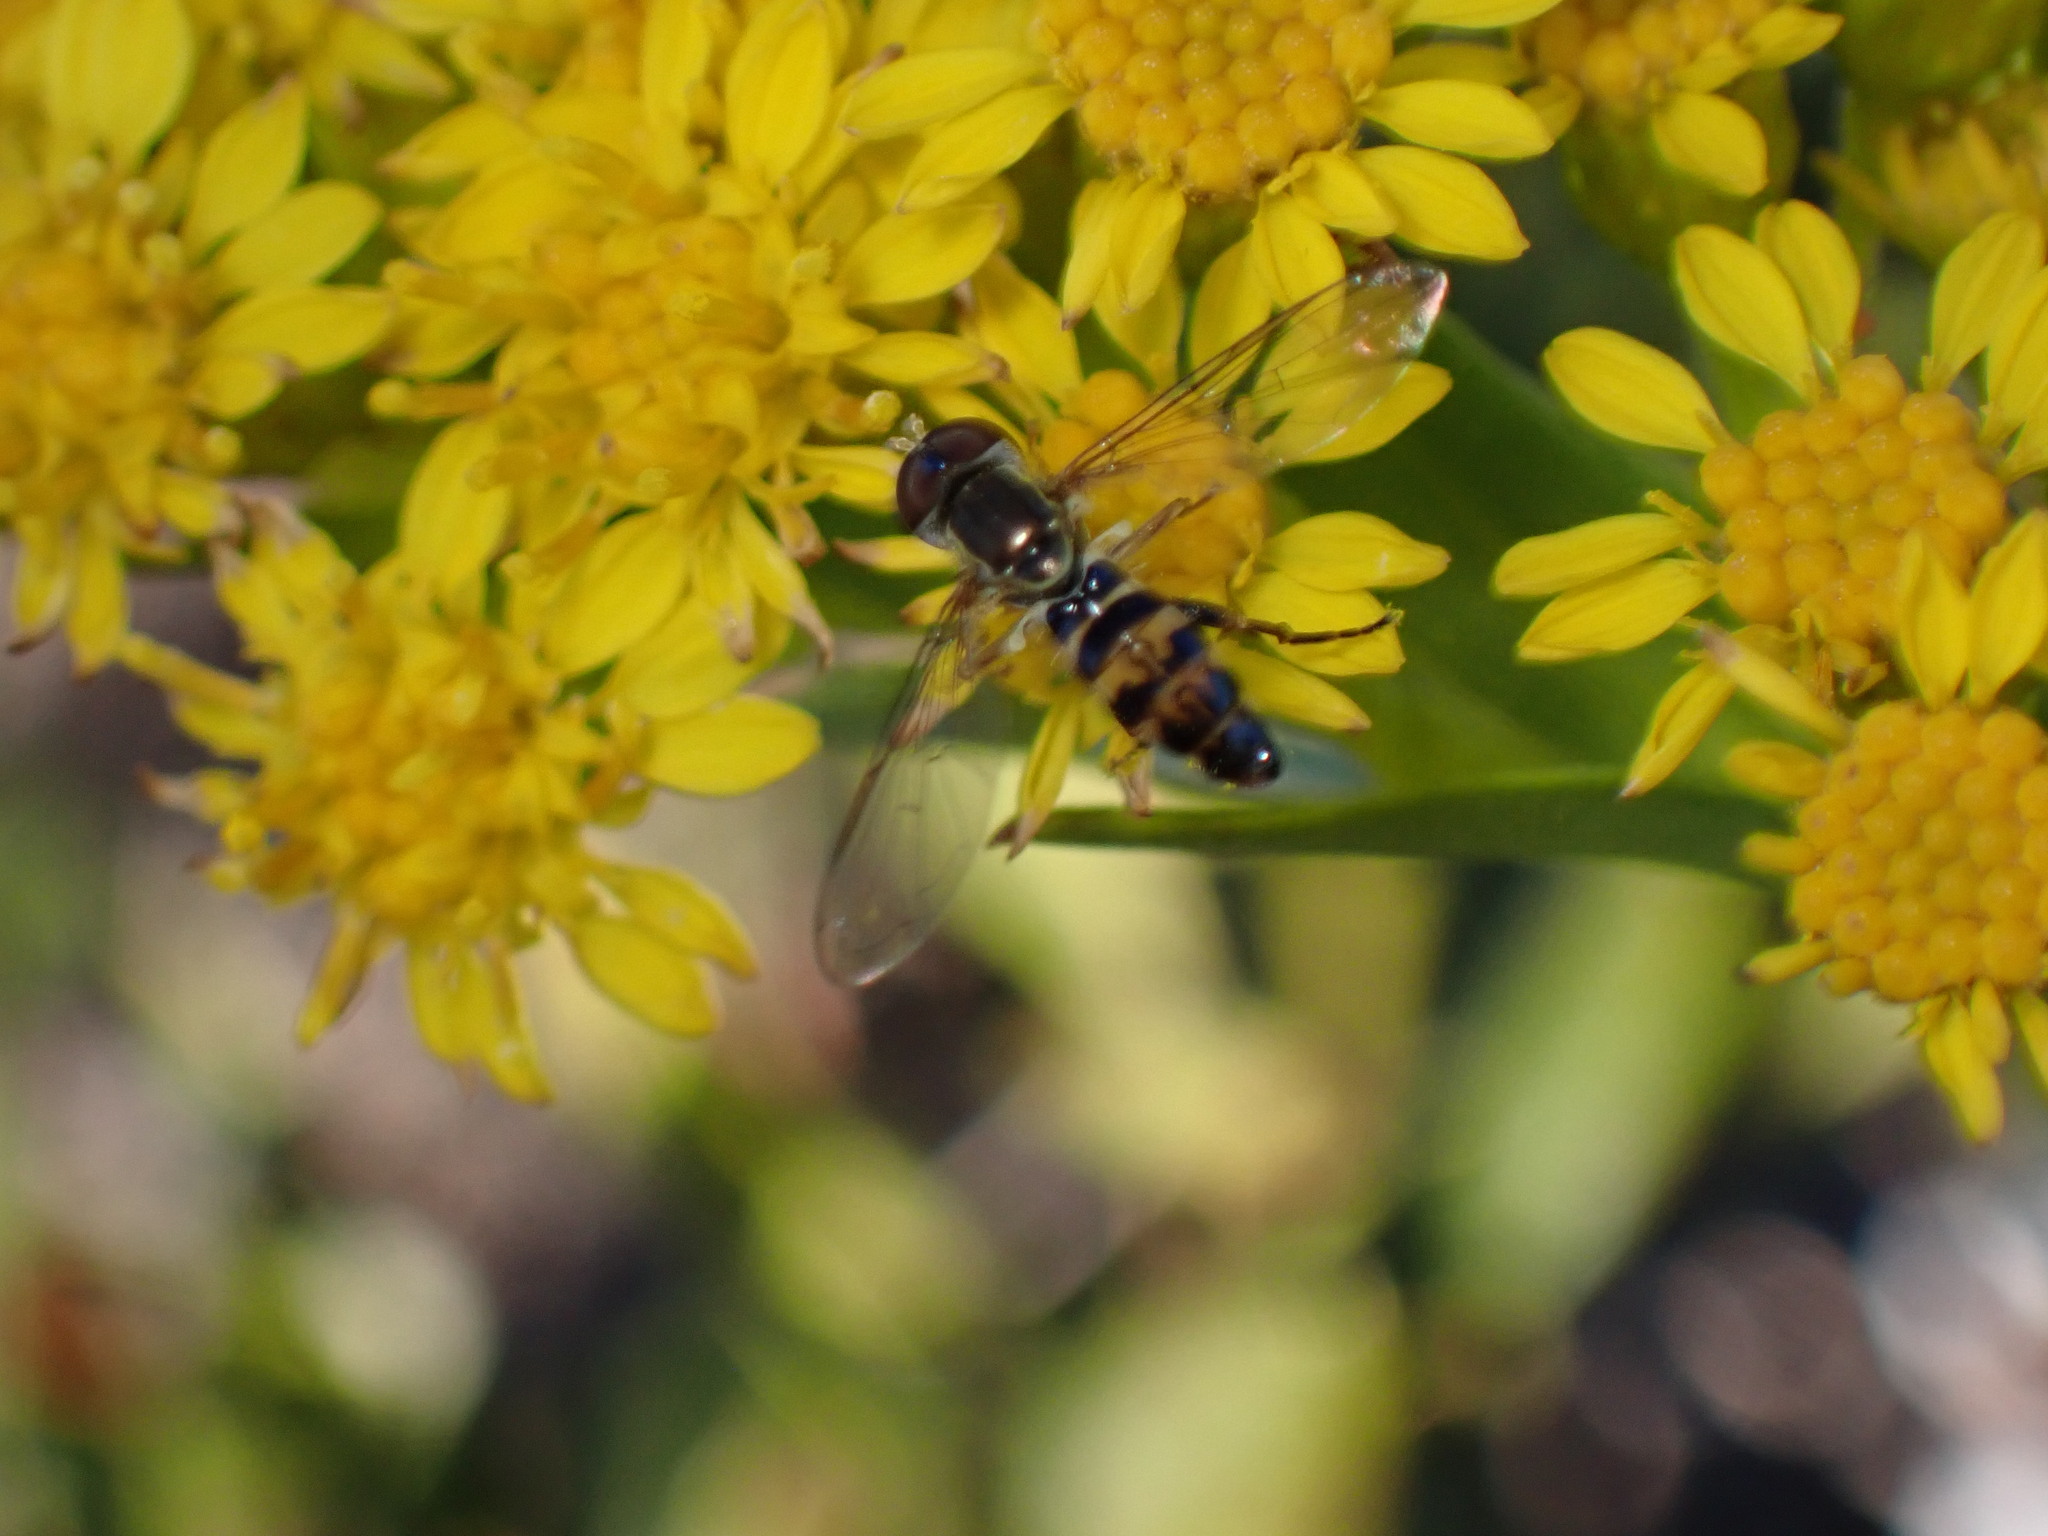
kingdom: Animalia
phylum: Arthropoda
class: Insecta
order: Diptera
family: Syrphidae
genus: Toxomerus
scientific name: Toxomerus geminatus
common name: Eastern calligrapher
